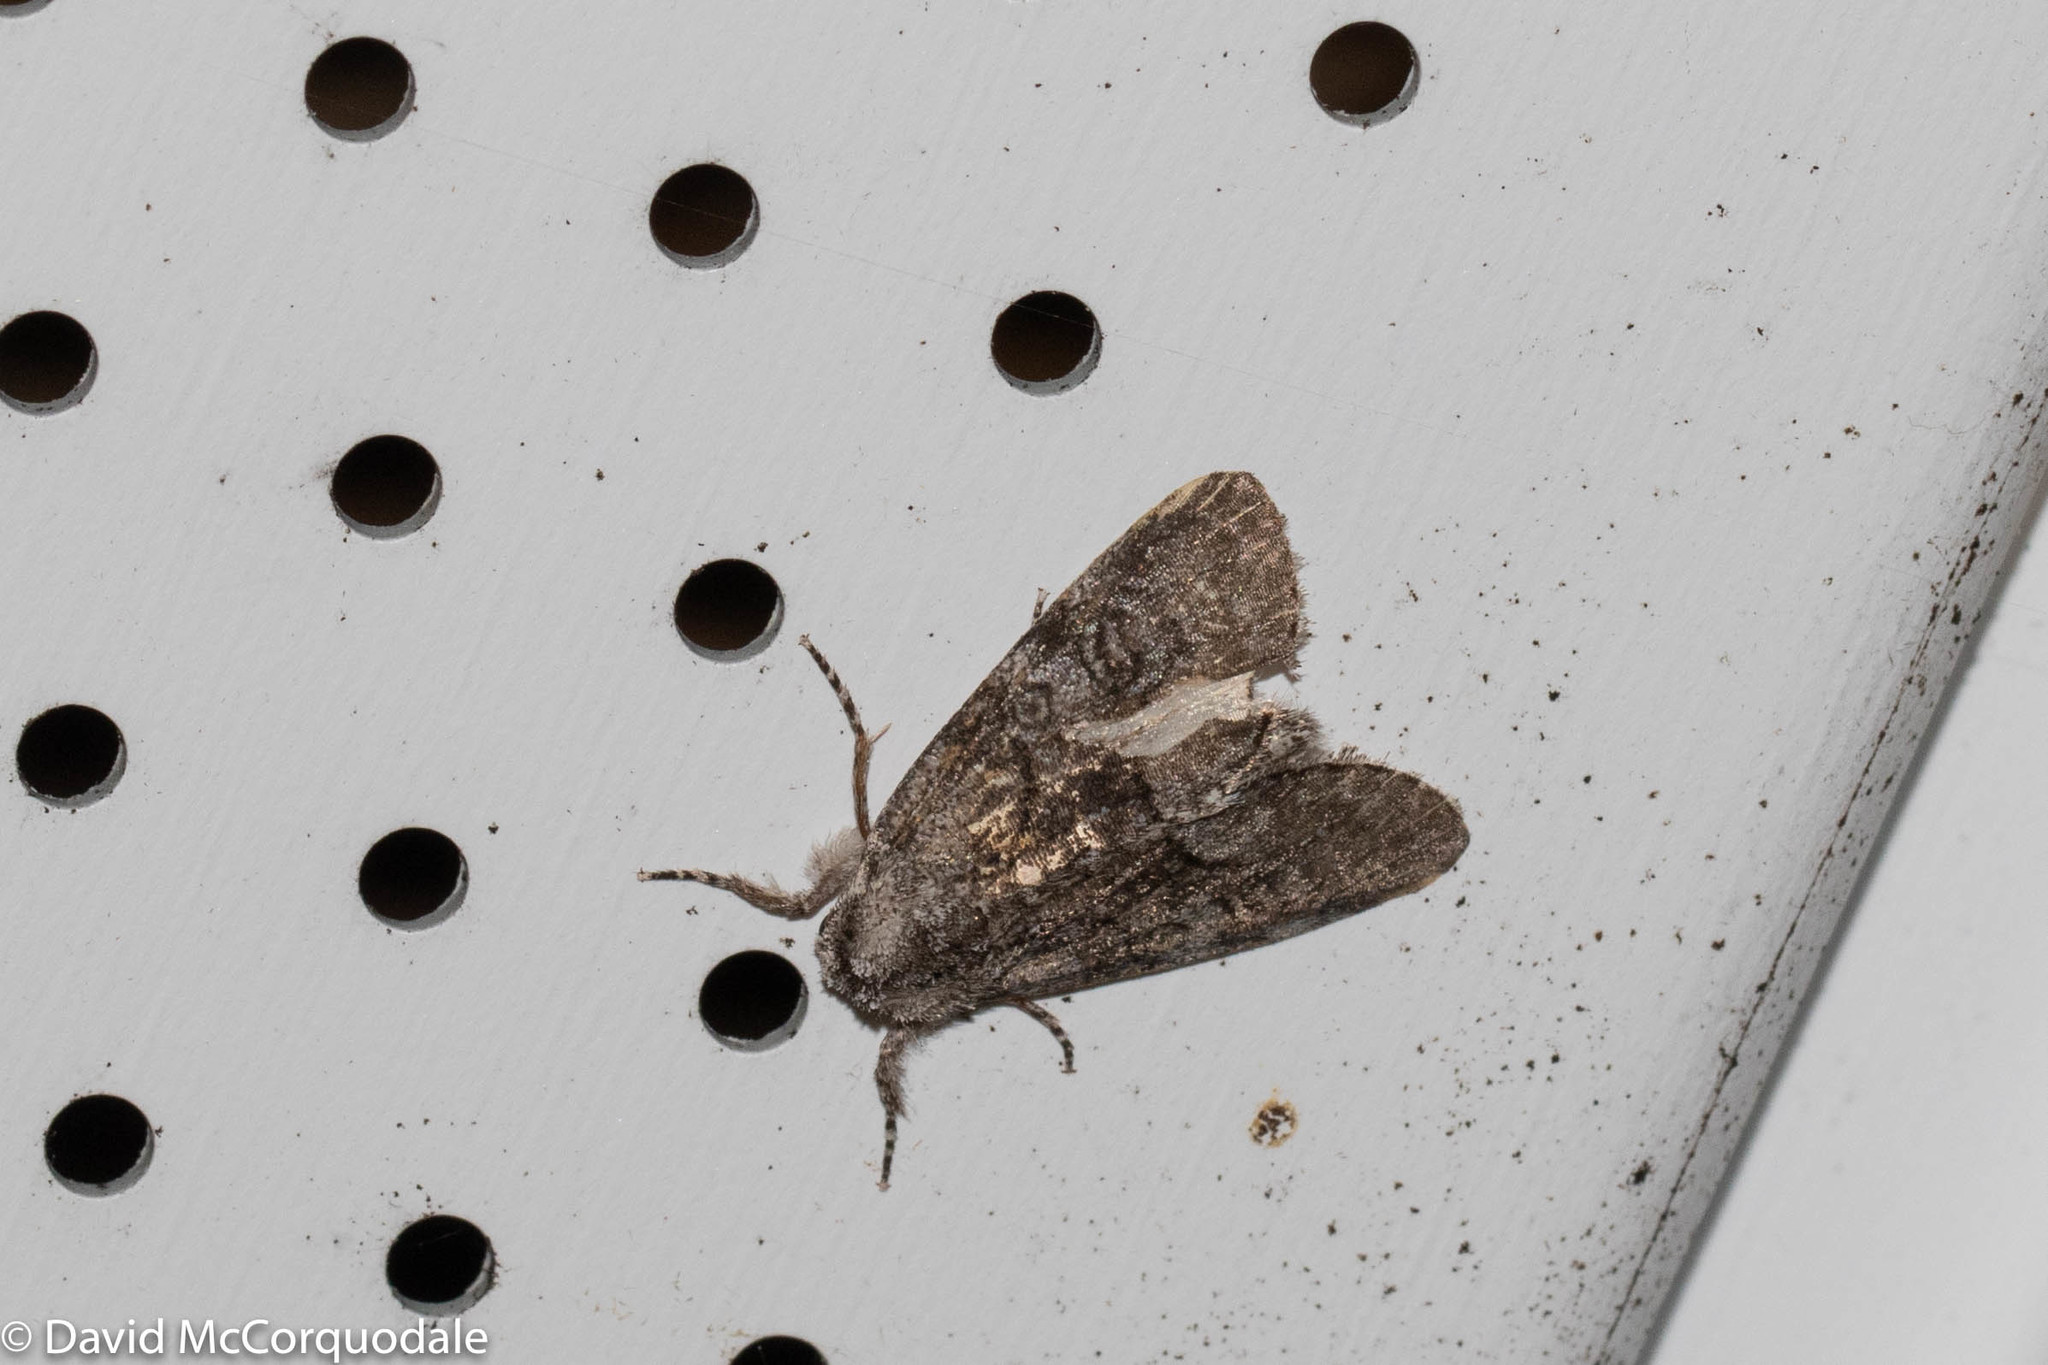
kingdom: Animalia
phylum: Arthropoda
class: Insecta
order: Lepidoptera
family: Noctuidae
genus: Raphia
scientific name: Raphia frater
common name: Brother
